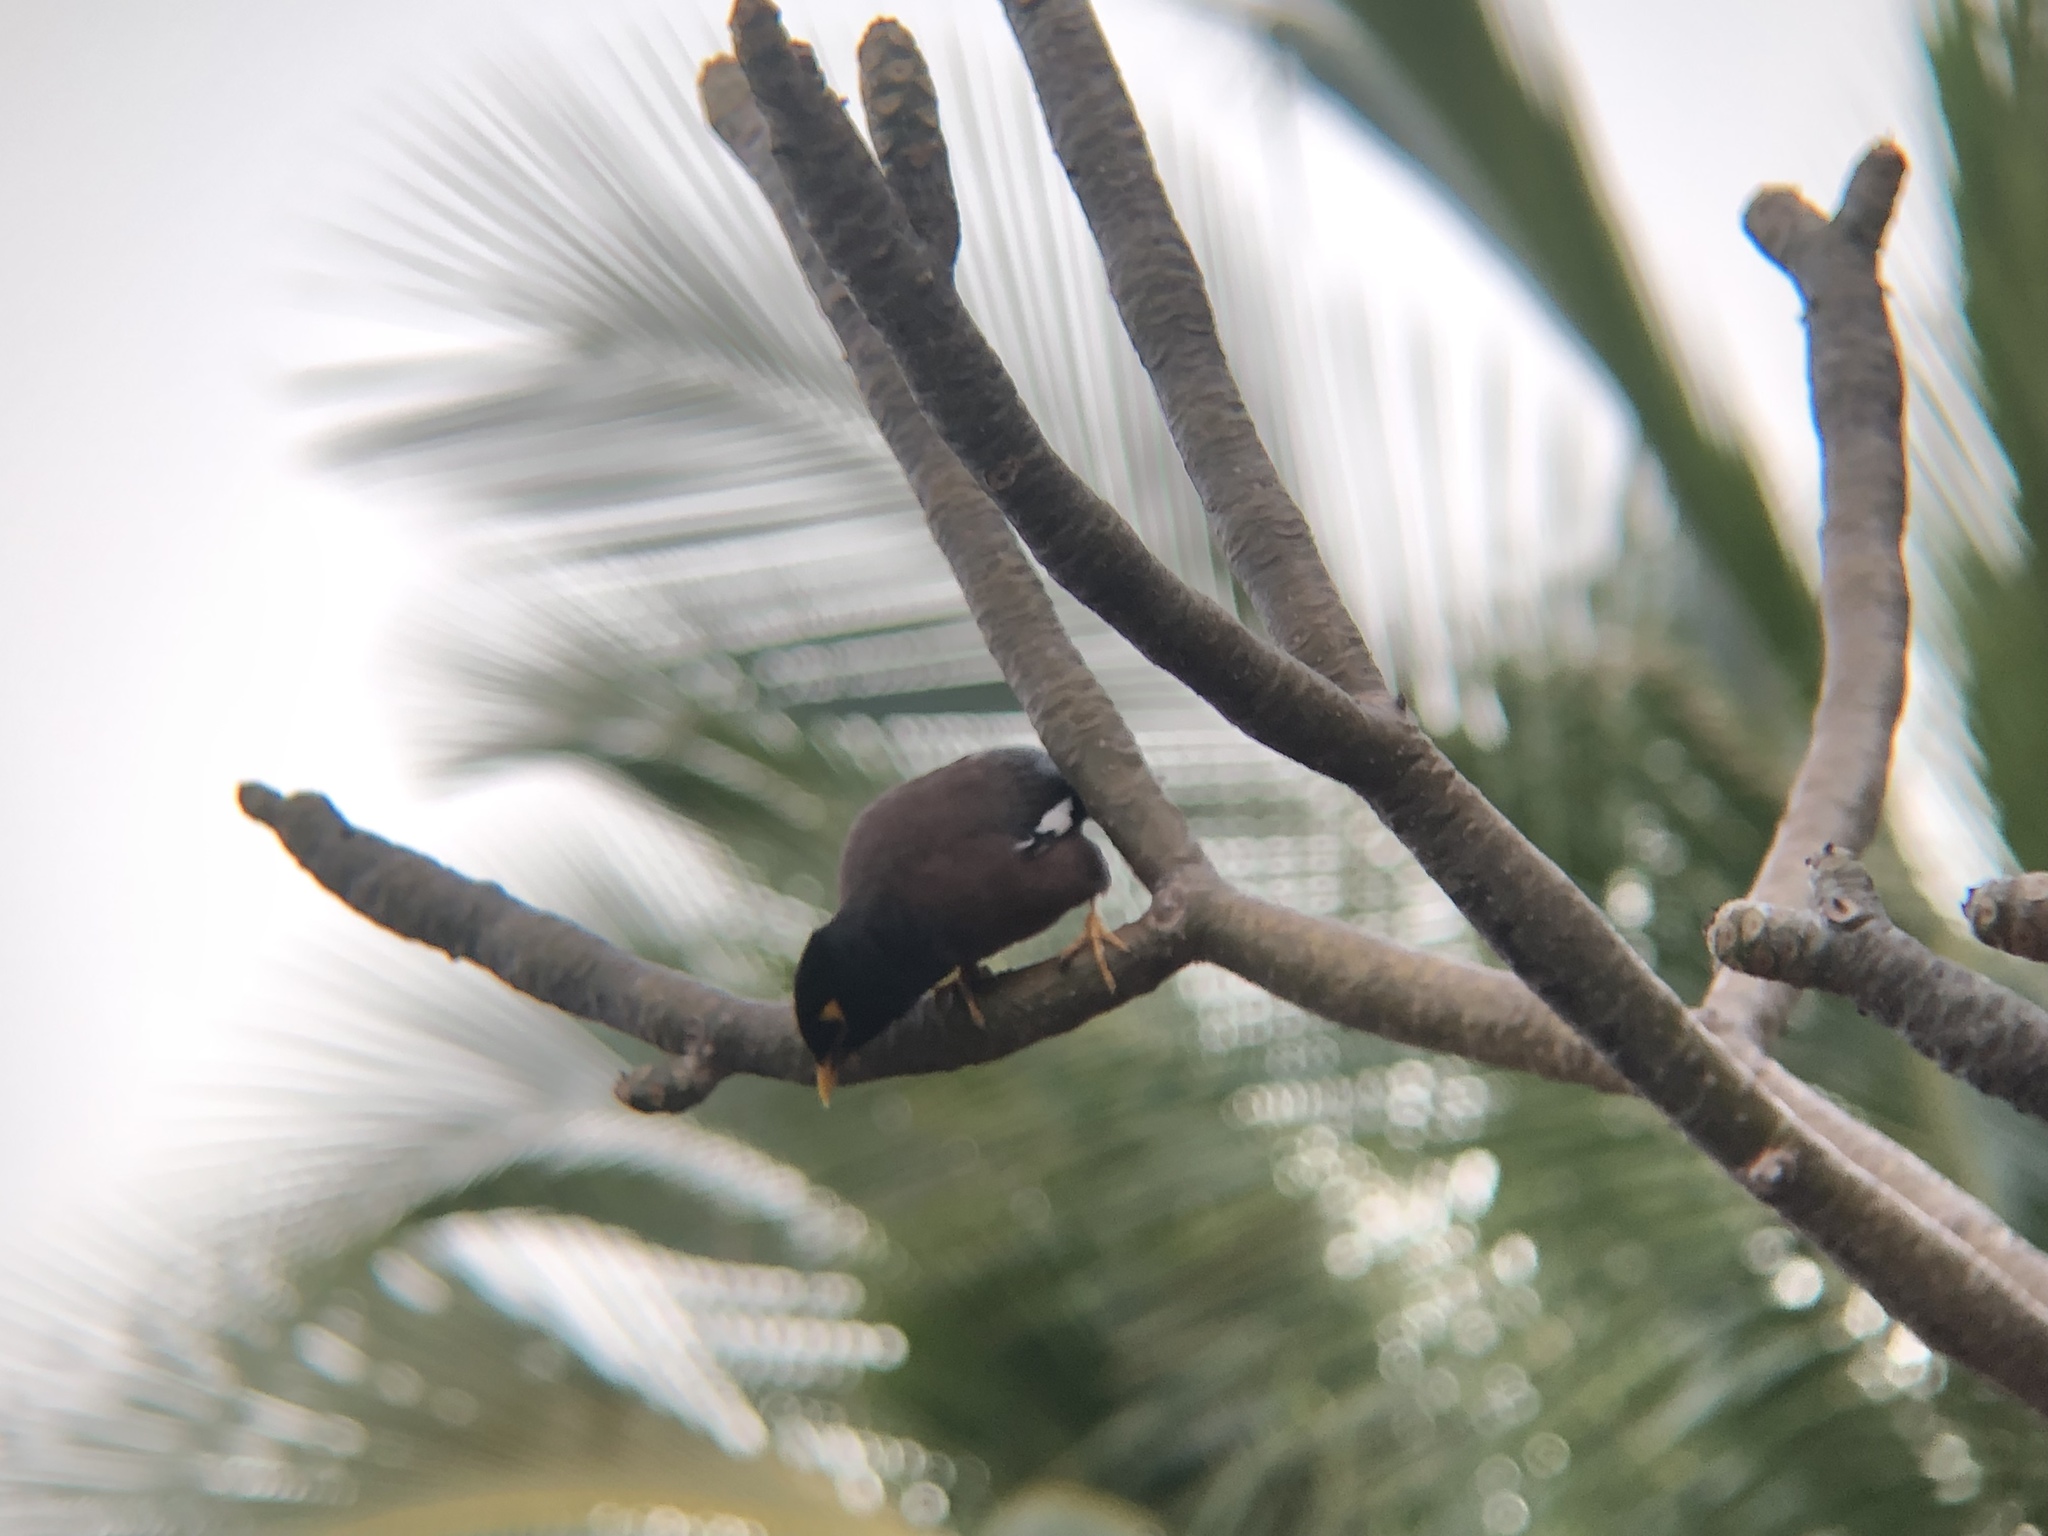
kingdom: Animalia
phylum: Chordata
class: Aves
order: Passeriformes
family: Sturnidae
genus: Acridotheres
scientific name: Acridotheres tristis
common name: Common myna
